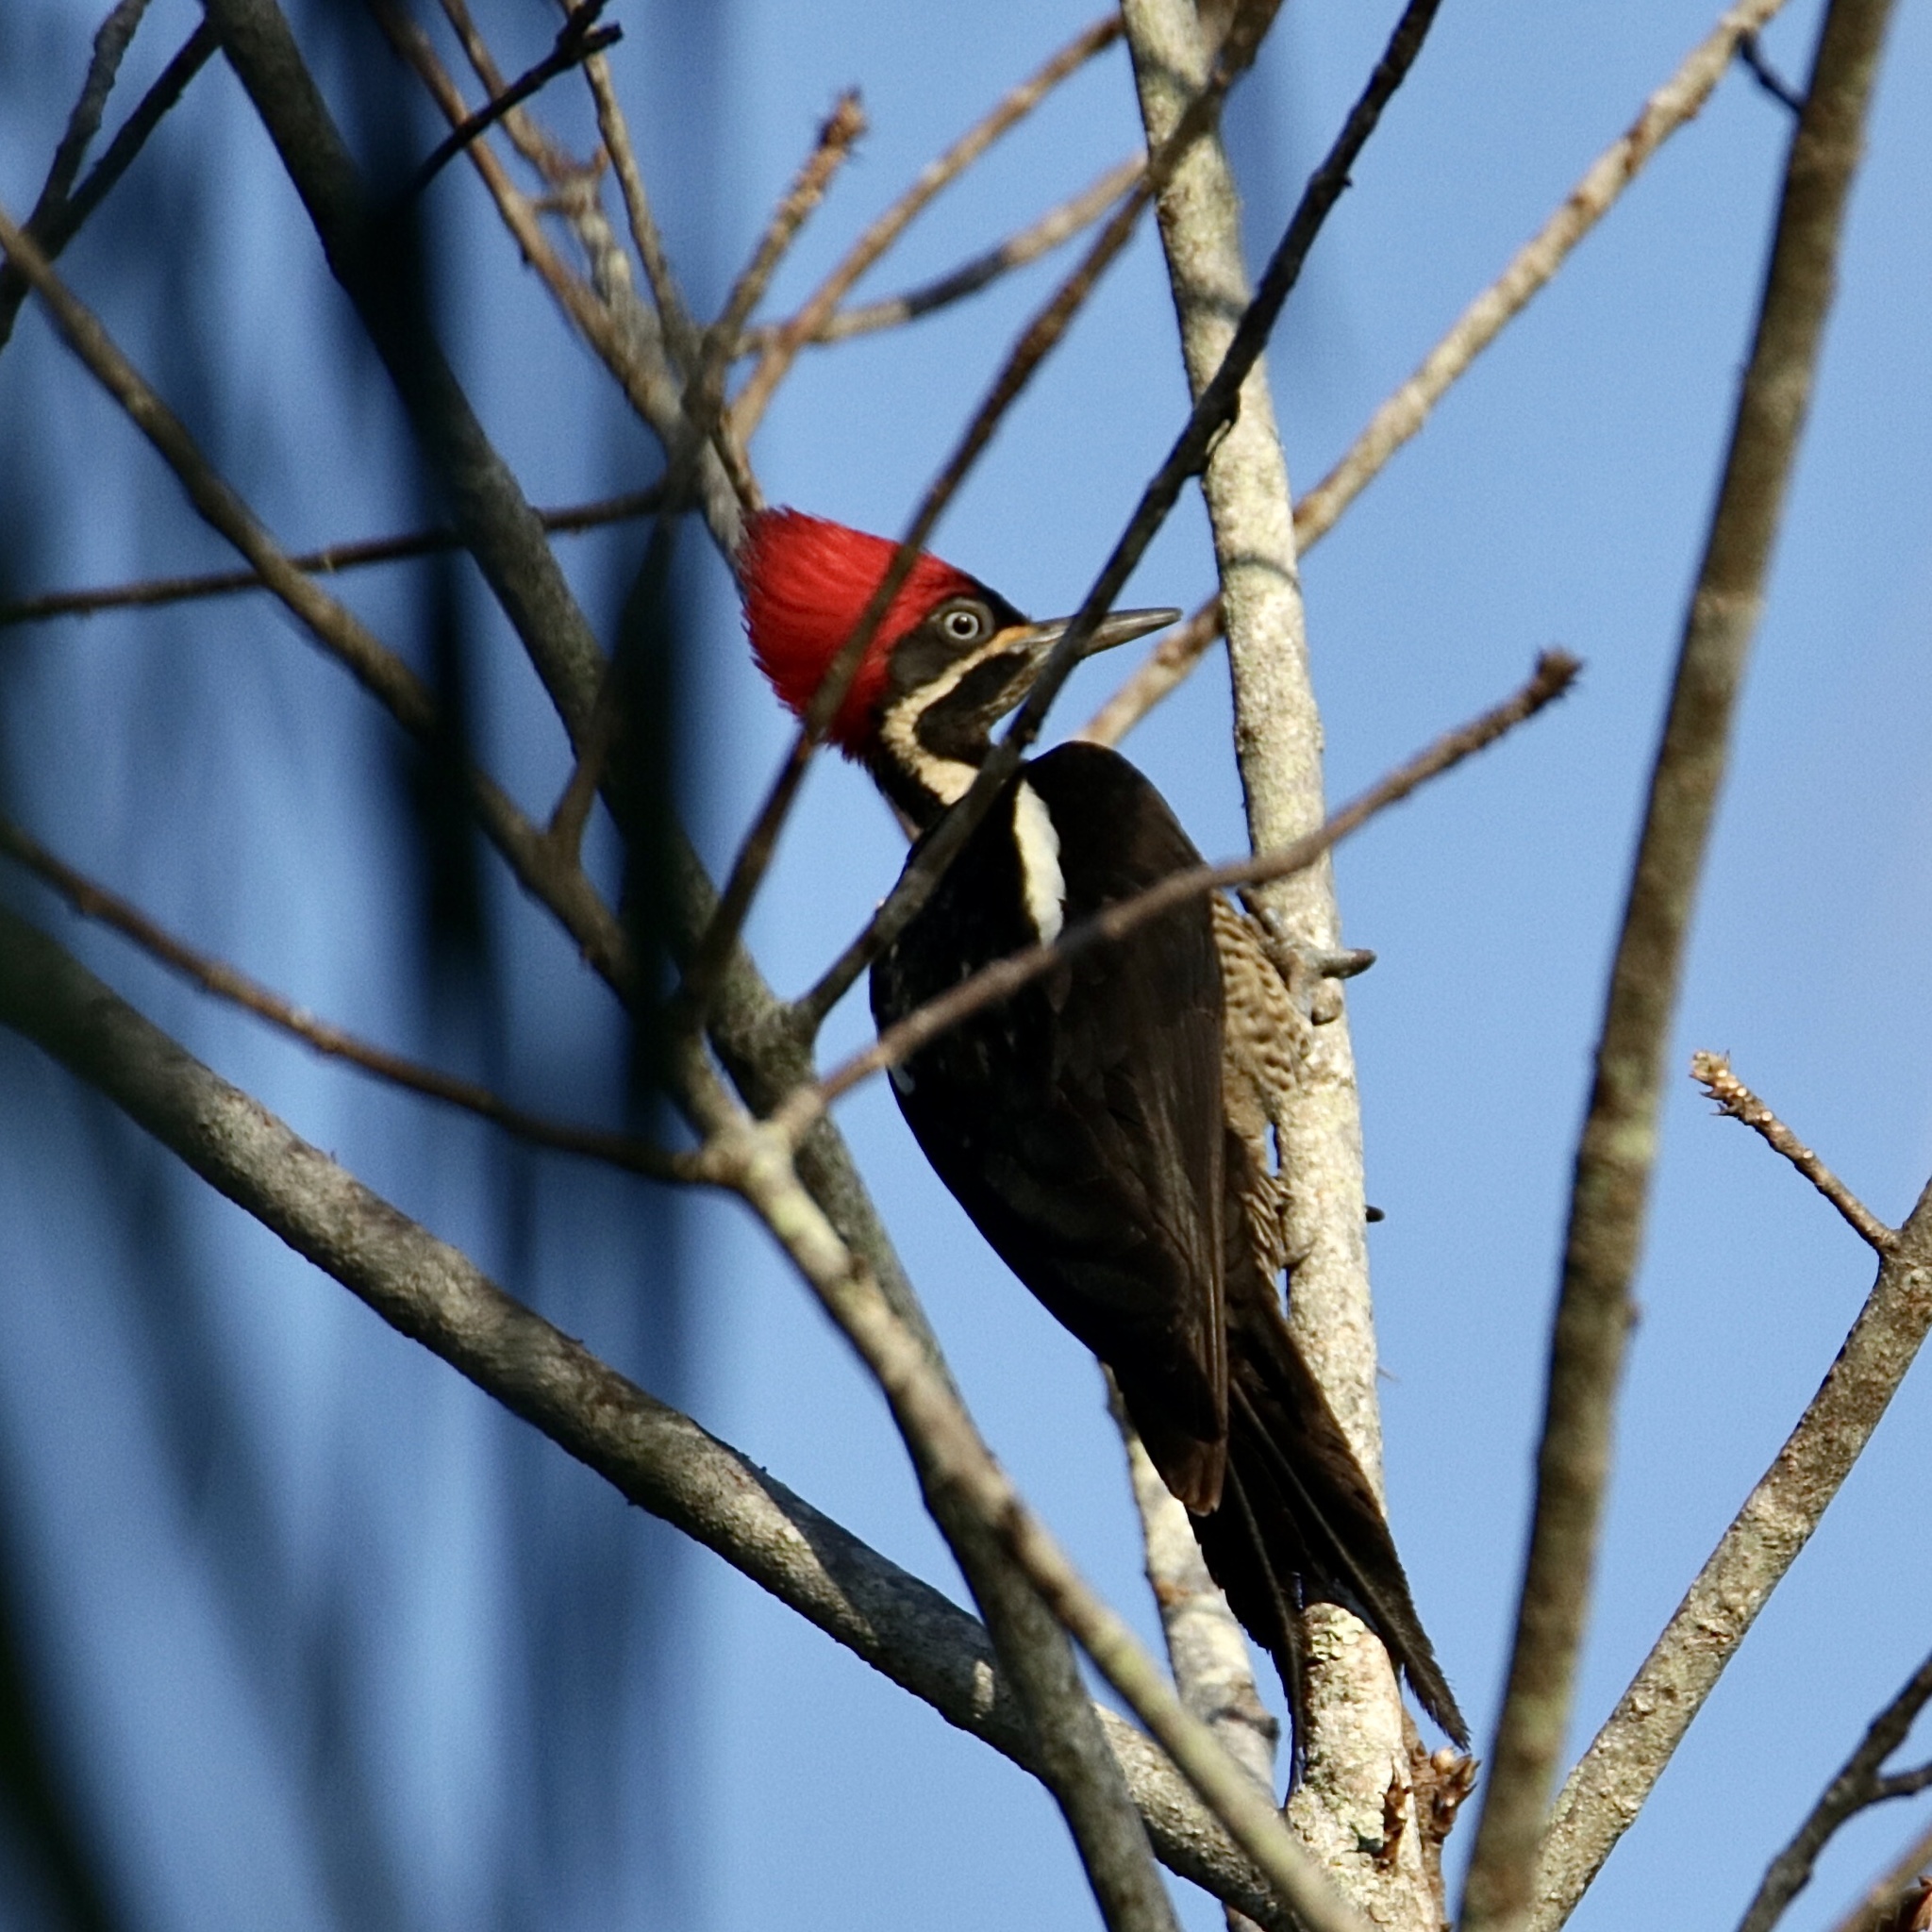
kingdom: Animalia
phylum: Chordata
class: Aves
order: Piciformes
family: Picidae
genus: Dryocopus
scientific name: Dryocopus lineatus
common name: Lineated woodpecker
